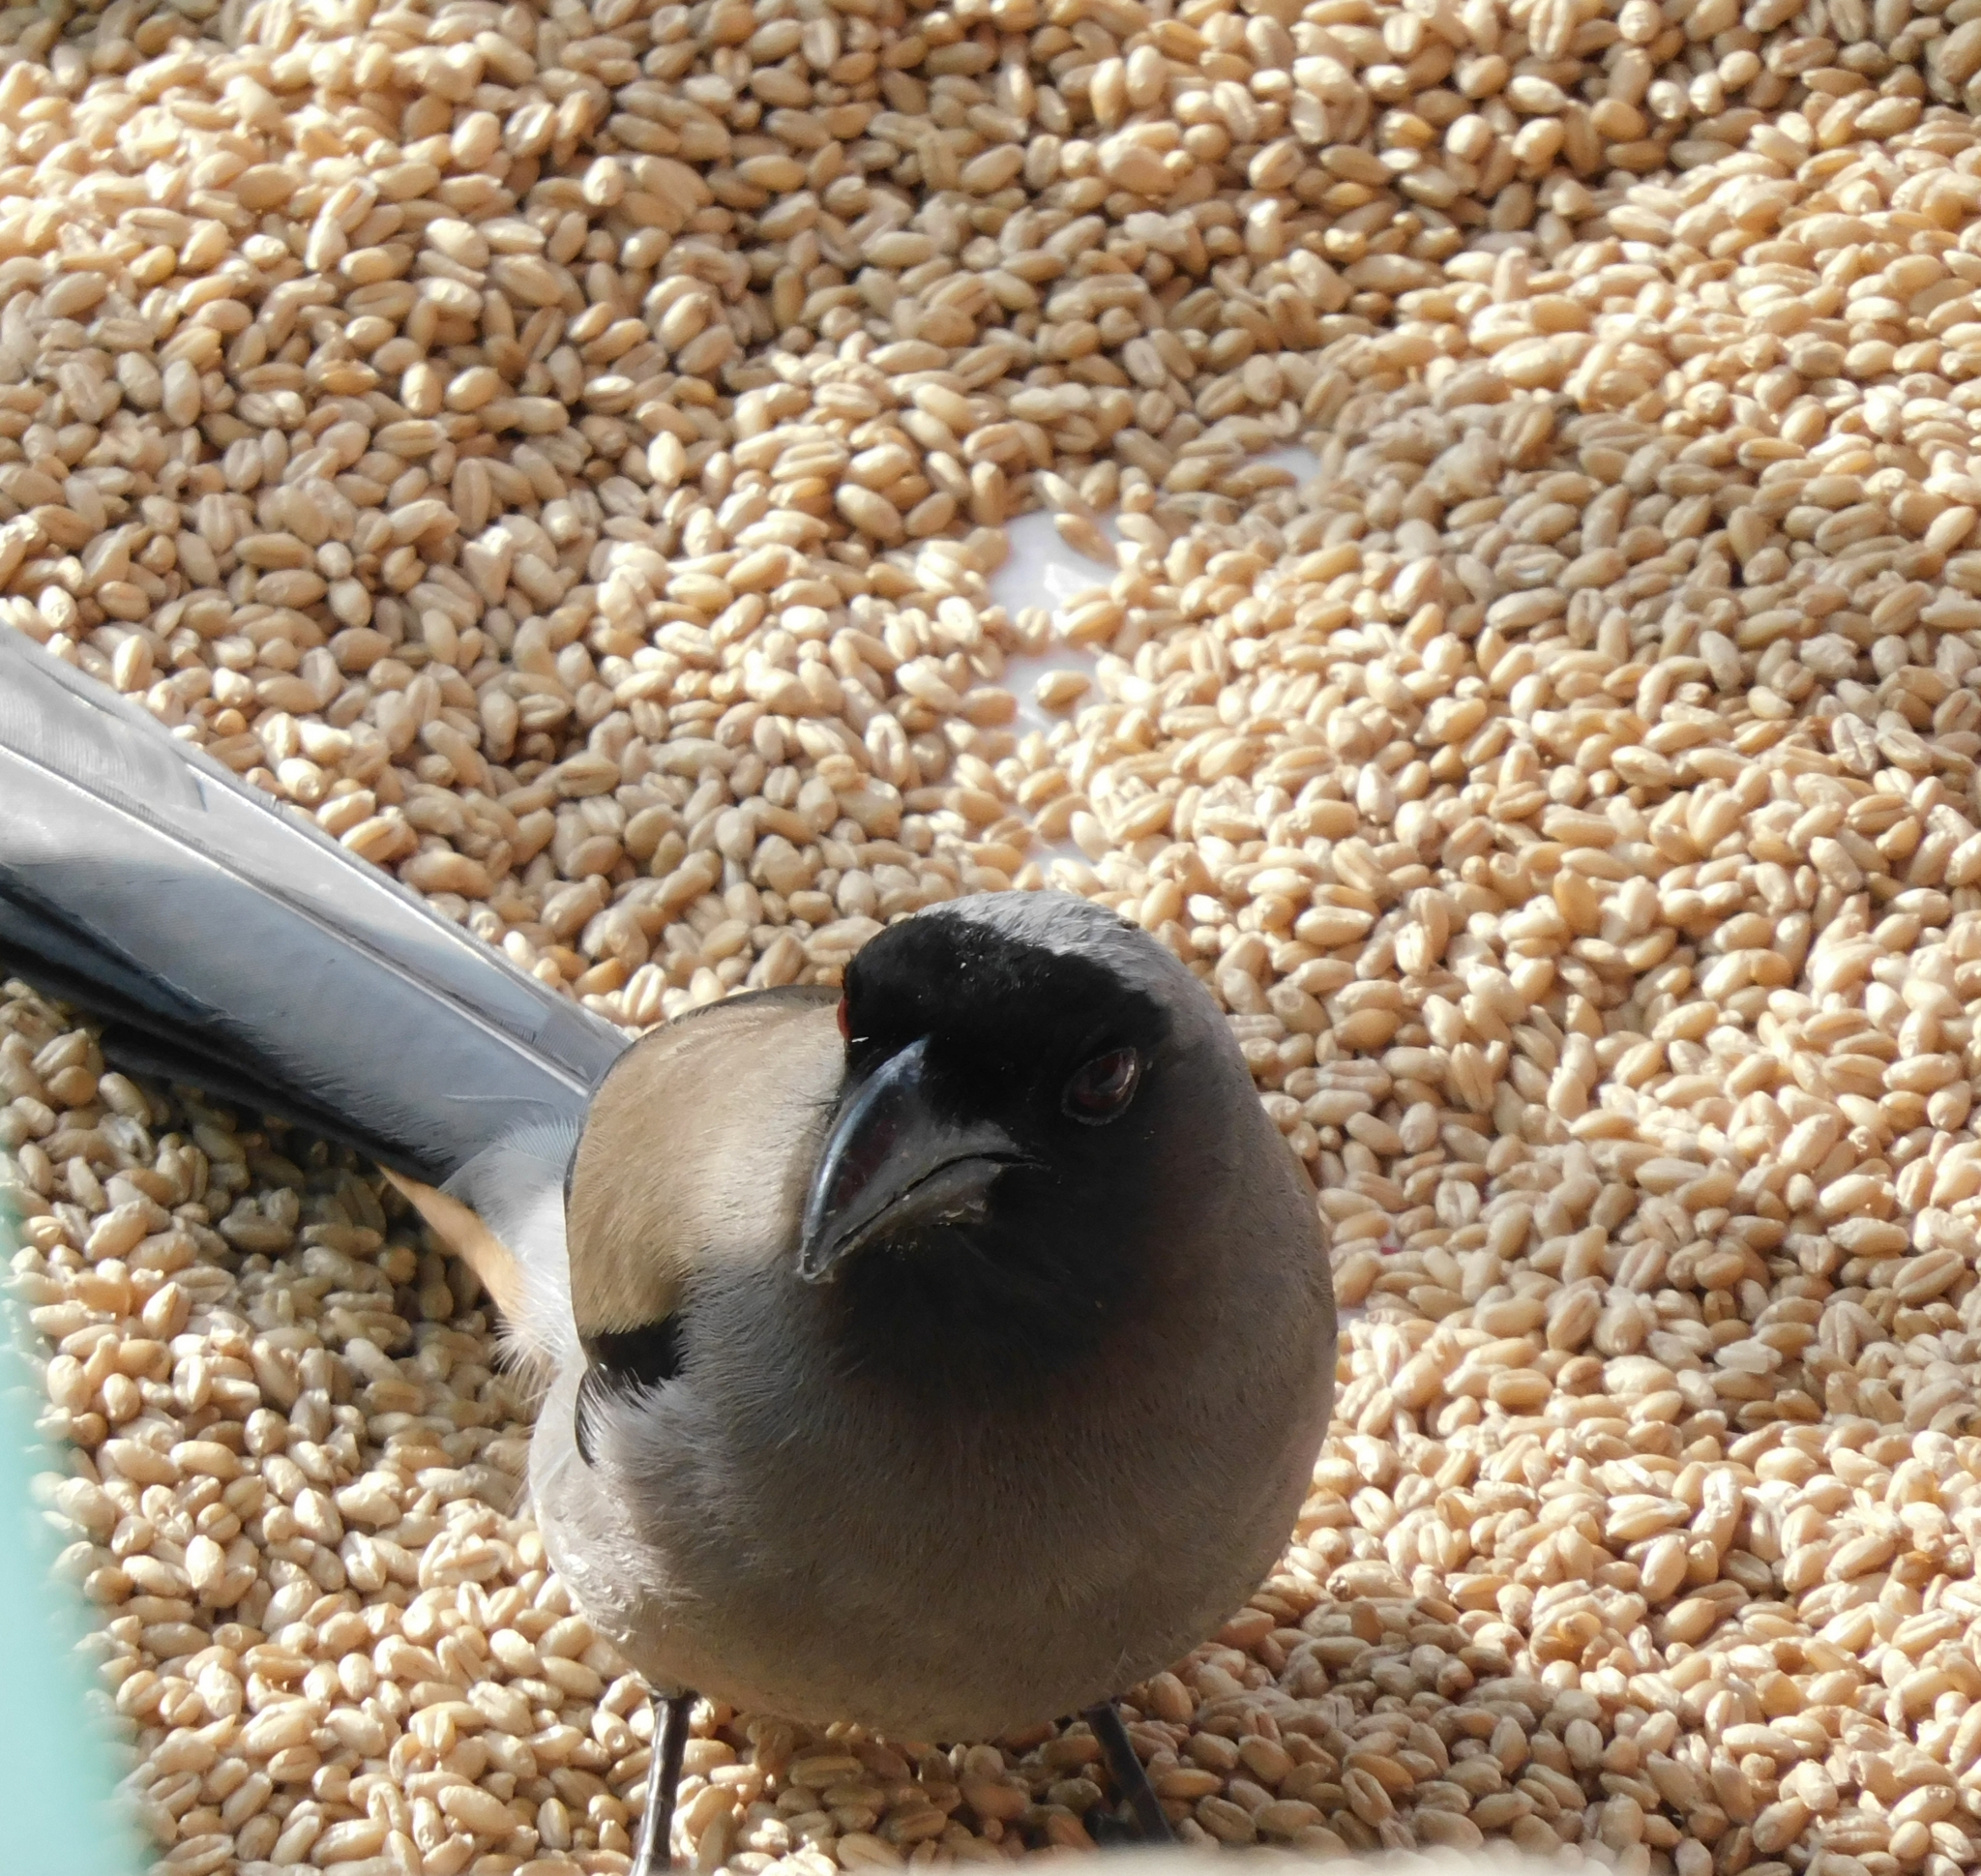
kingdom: Animalia
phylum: Chordata
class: Aves
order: Passeriformes
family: Corvidae
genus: Dendrocitta
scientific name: Dendrocitta formosae
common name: Grey treepie
